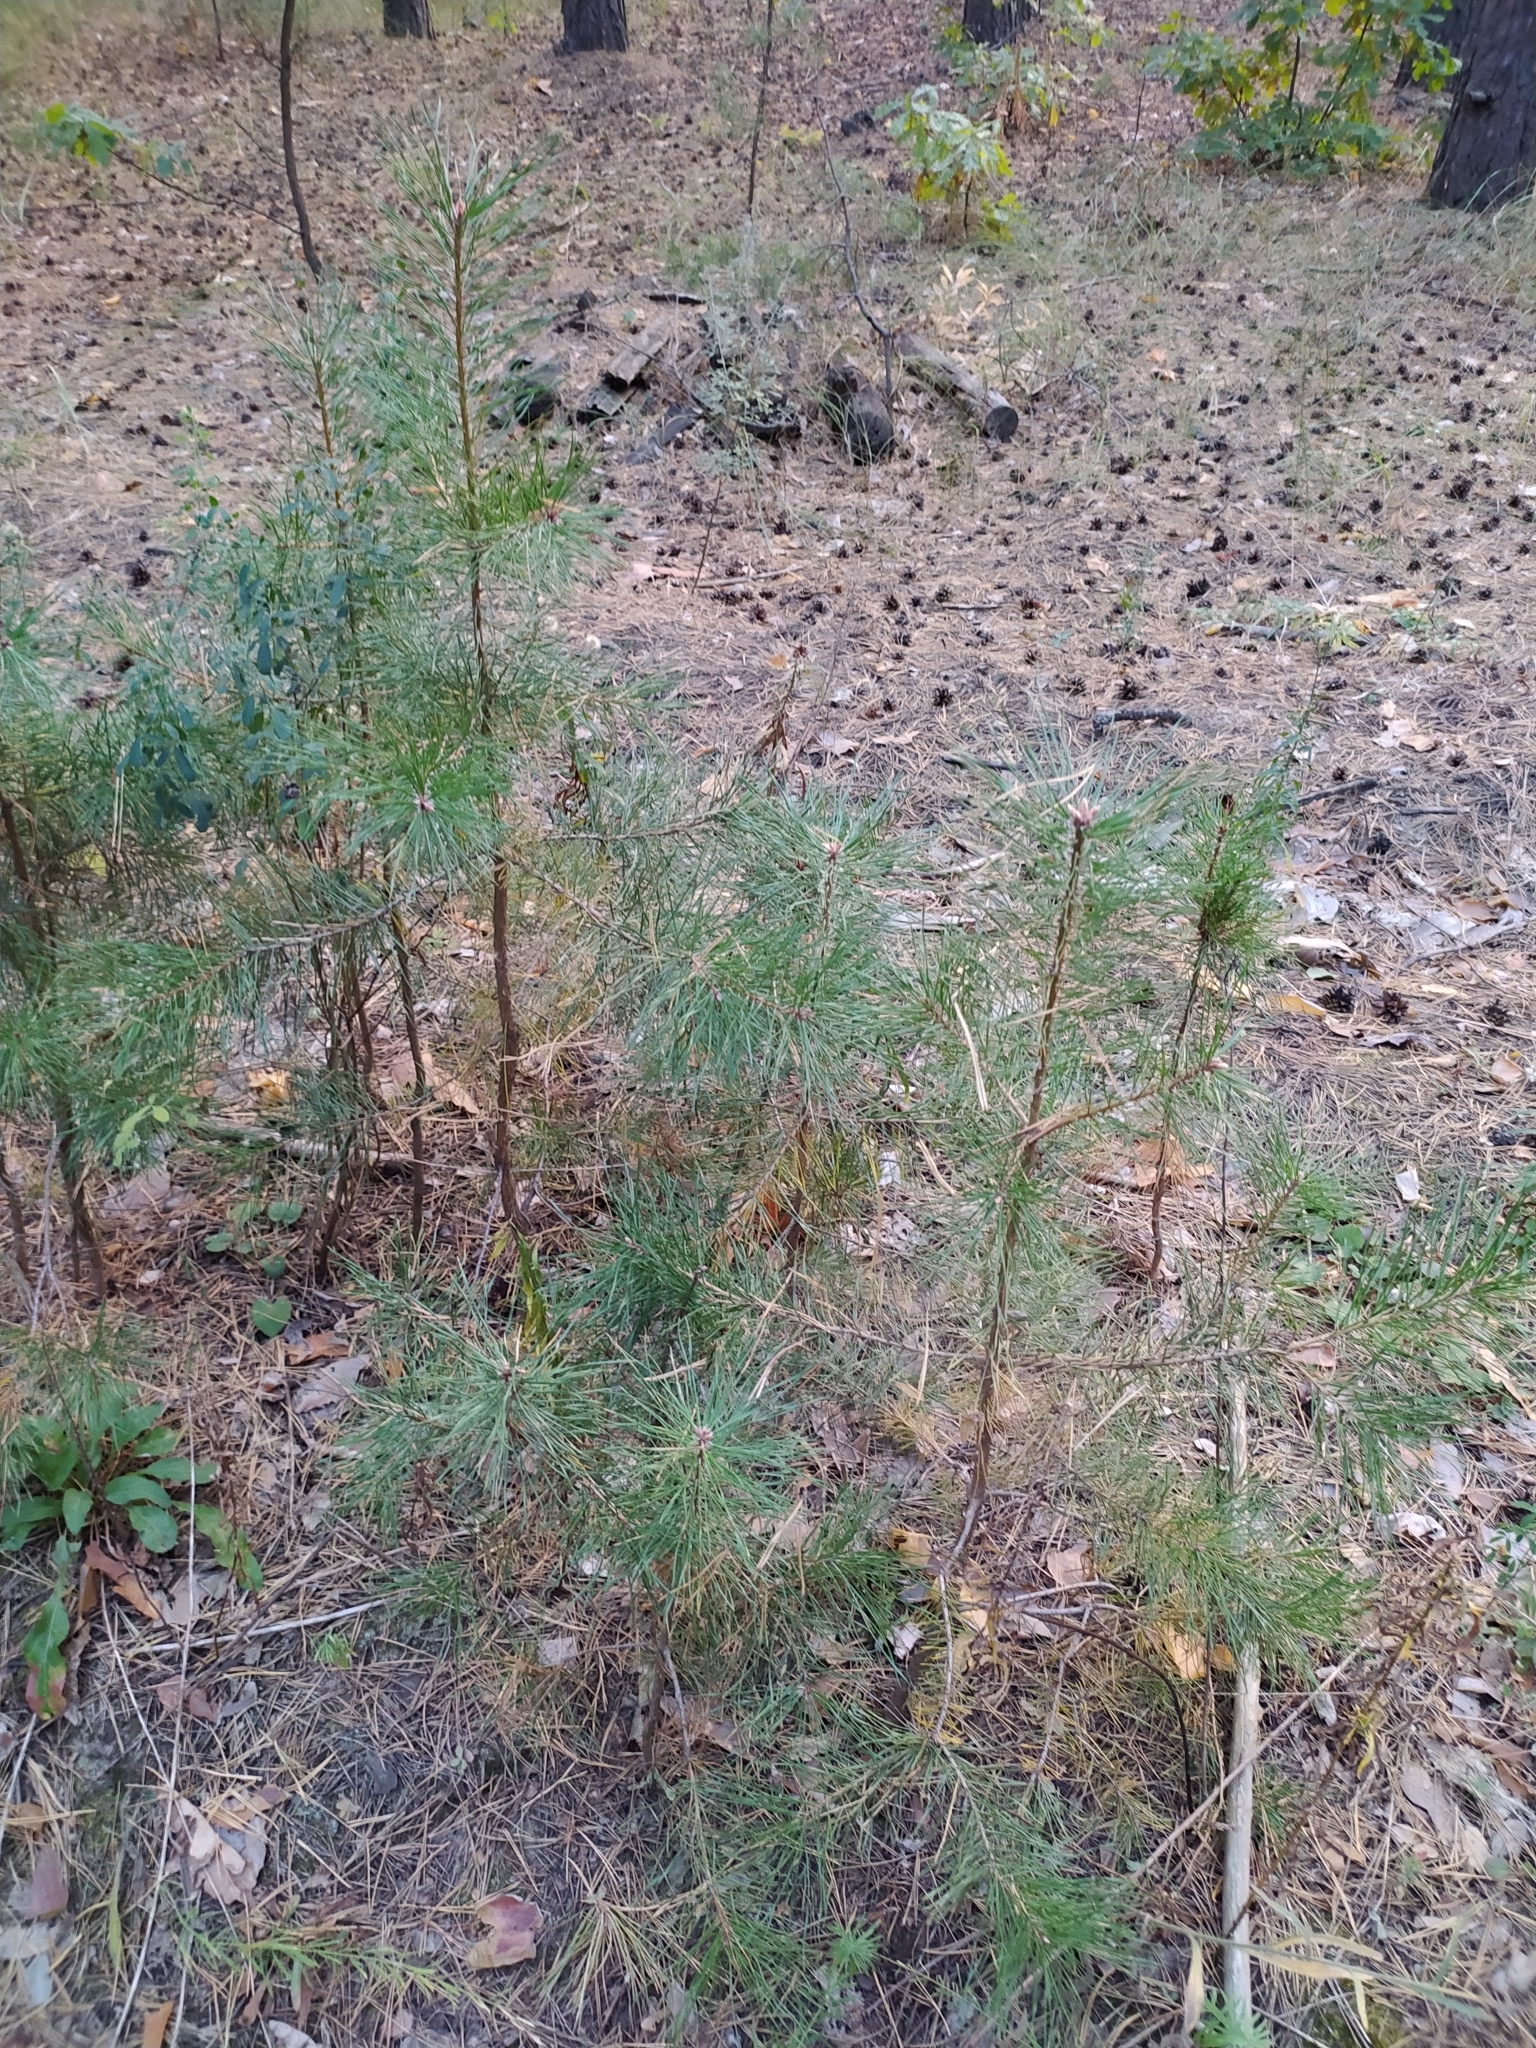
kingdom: Plantae
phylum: Tracheophyta
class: Pinopsida
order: Pinales
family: Pinaceae
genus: Pinus
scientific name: Pinus sylvestris
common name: Scots pine
